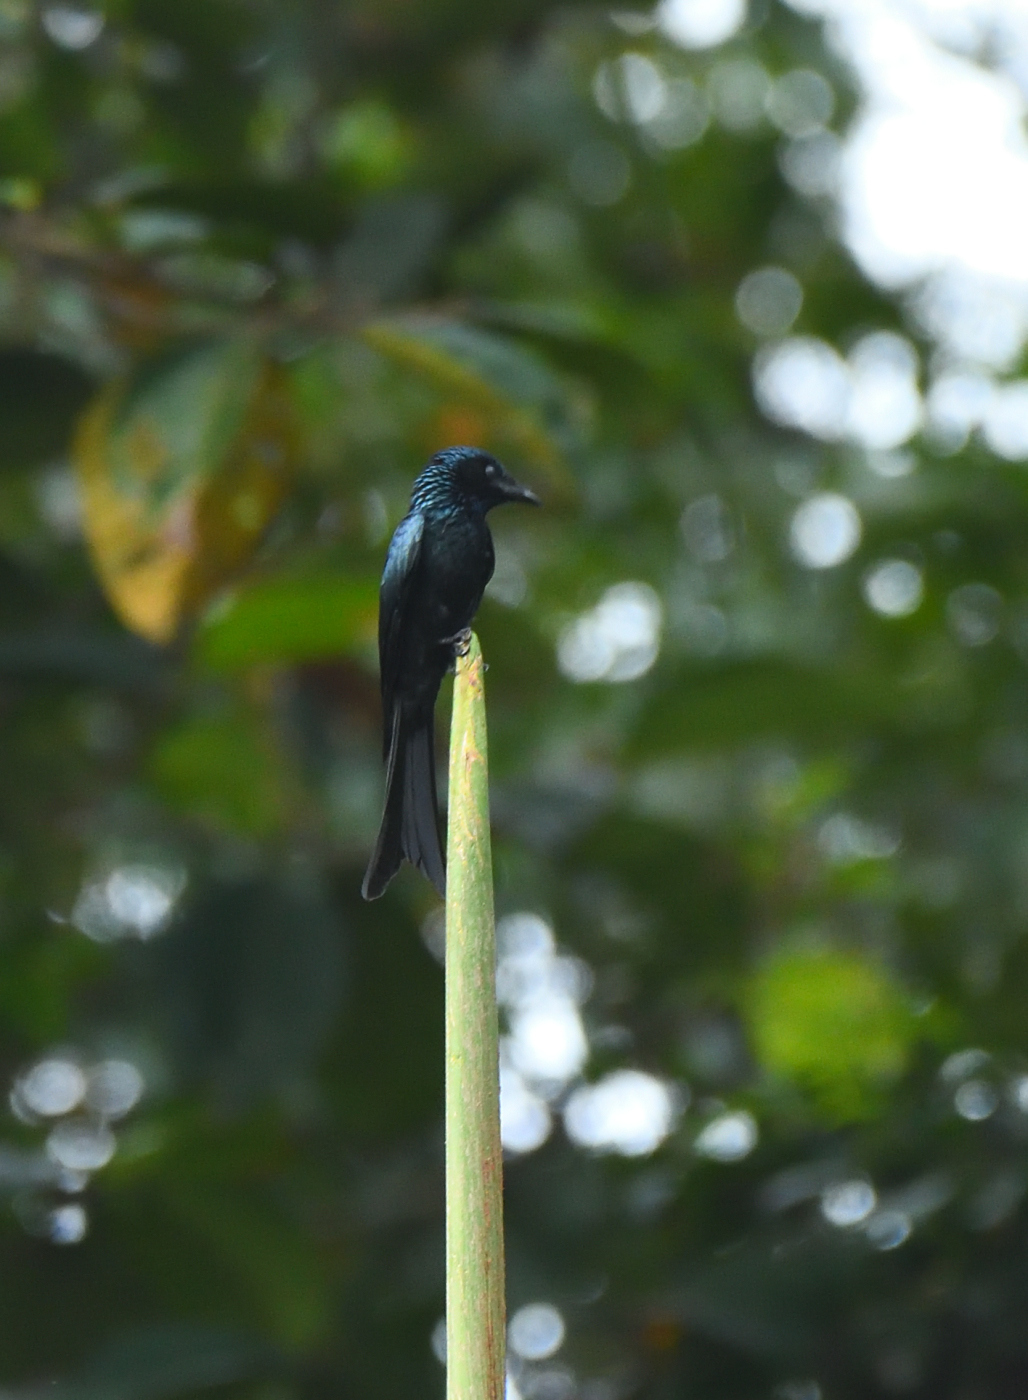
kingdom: Animalia
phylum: Chordata
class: Aves
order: Passeriformes
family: Dicruridae
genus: Dicrurus
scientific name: Dicrurus aeneus
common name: Bronzed drongo
